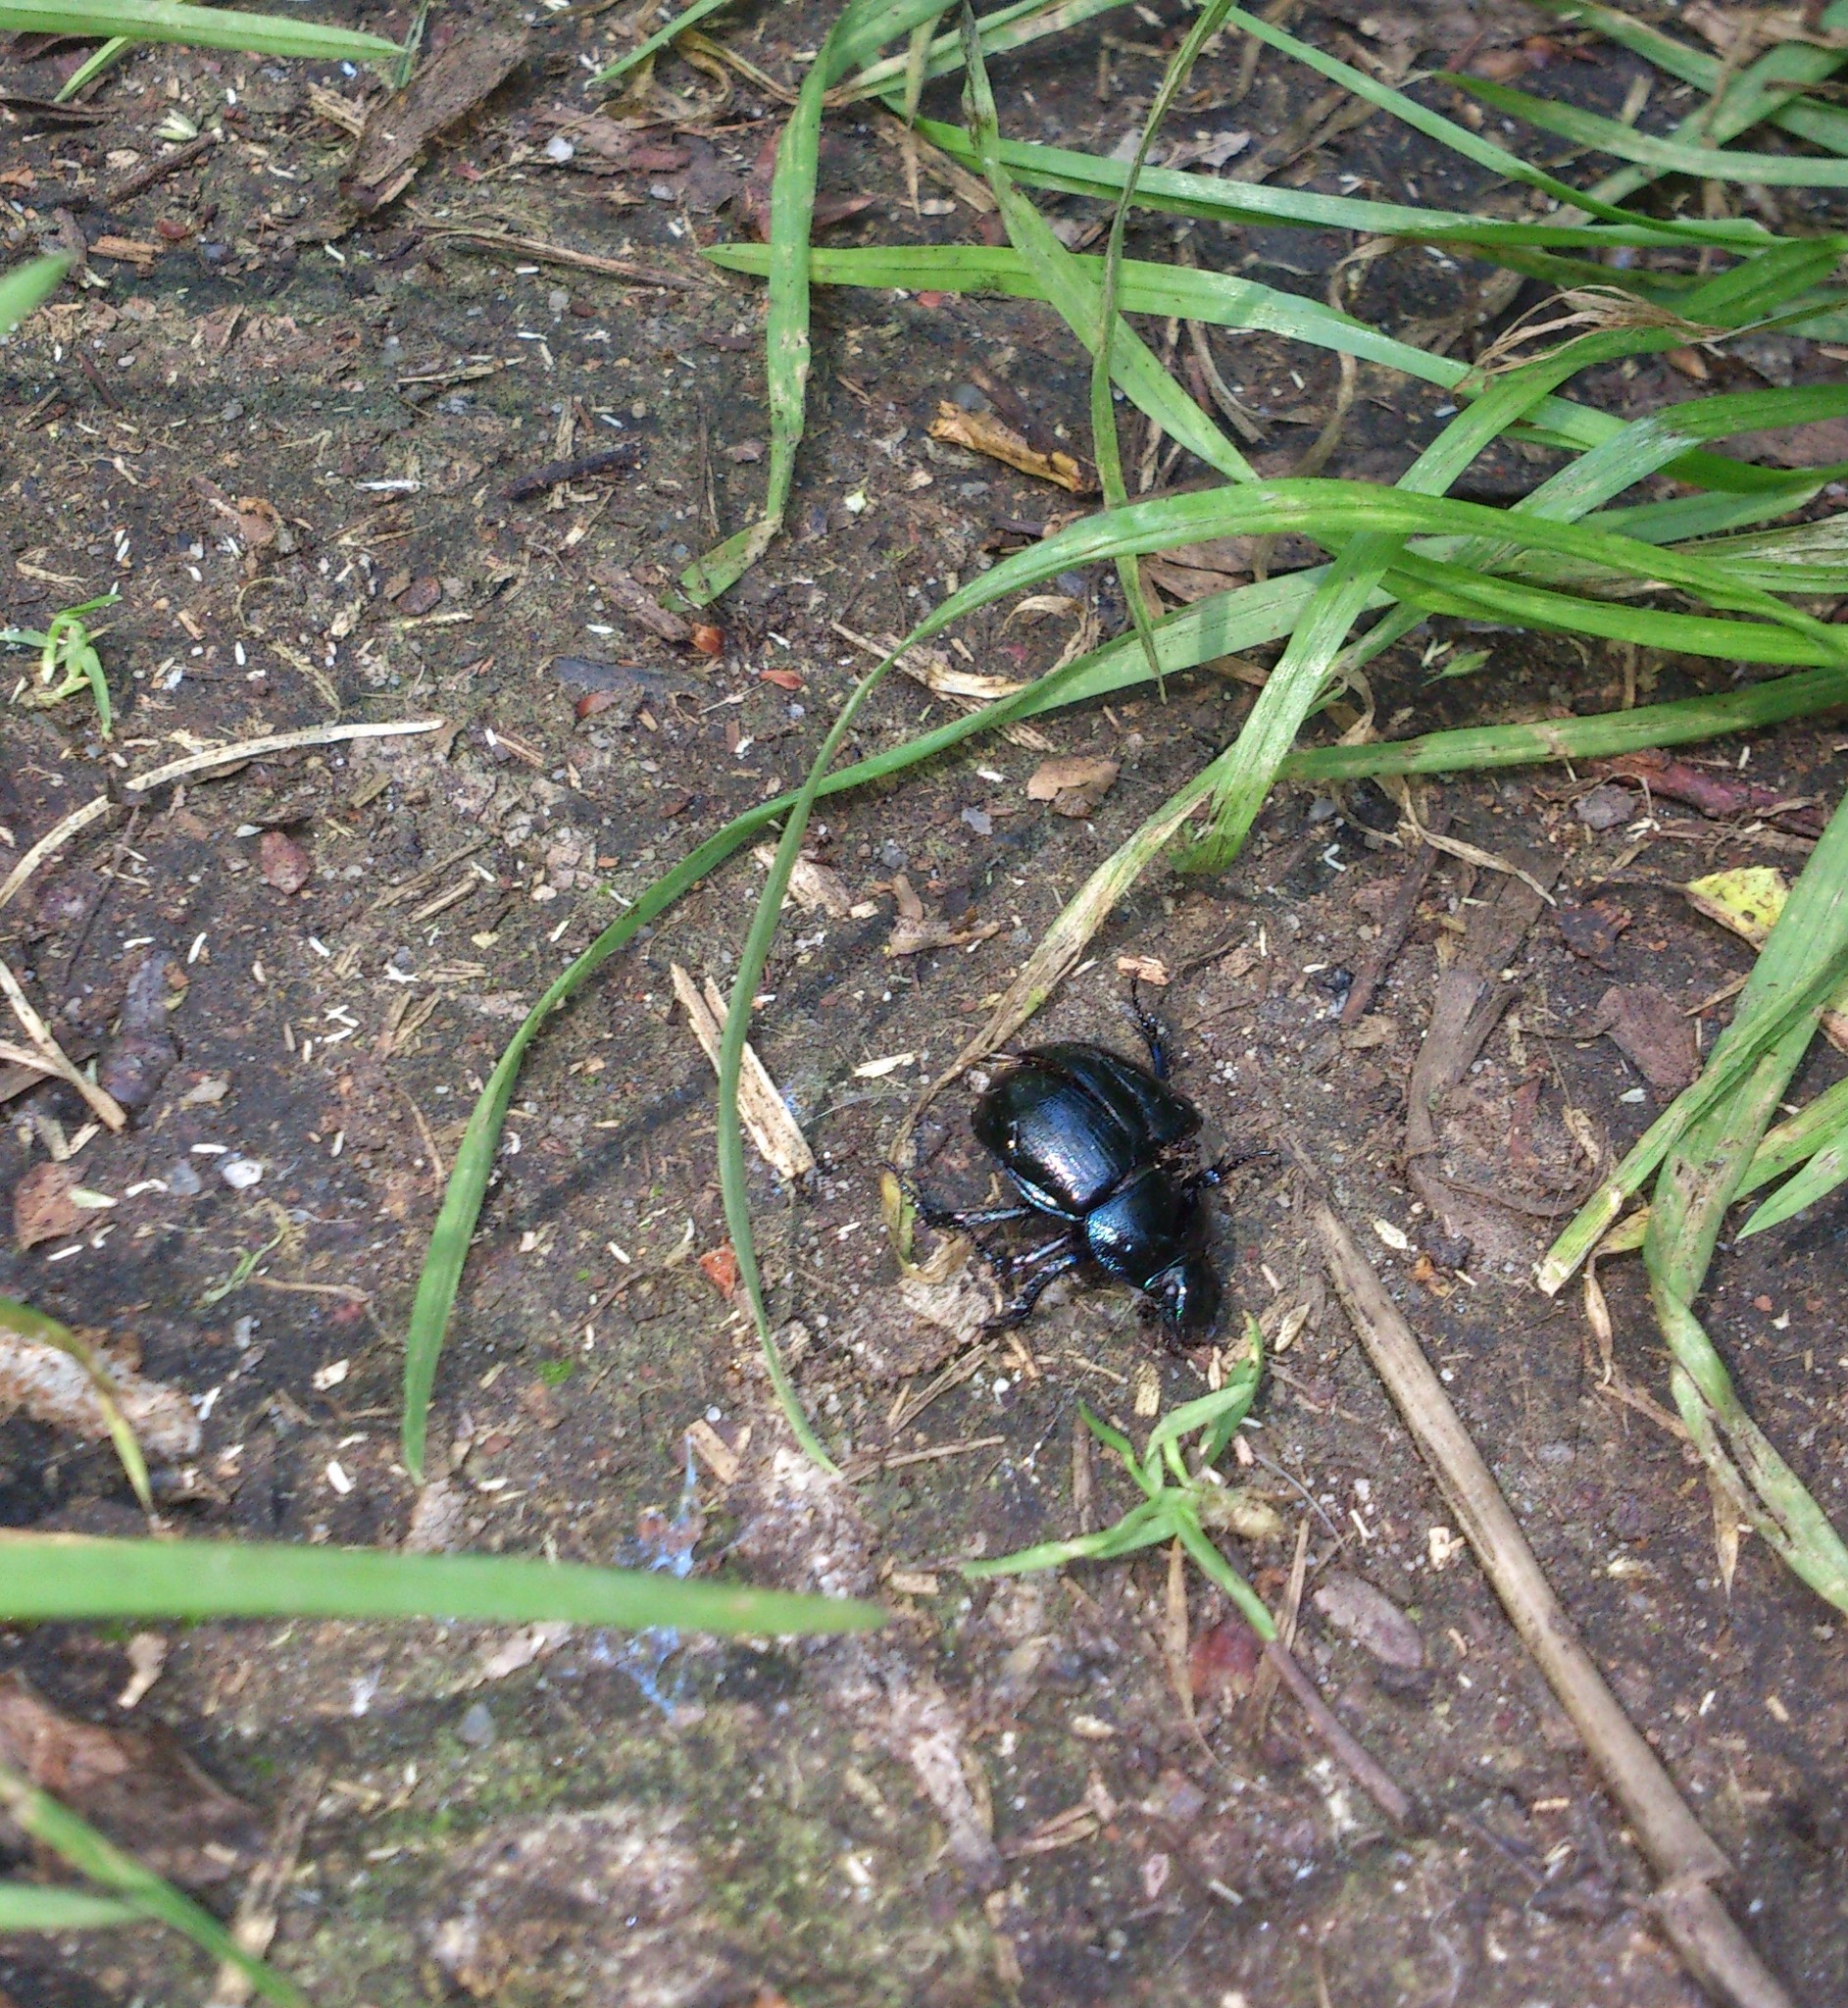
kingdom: Animalia
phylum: Arthropoda
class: Insecta
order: Coleoptera
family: Geotrupidae
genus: Anoplotrupes
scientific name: Anoplotrupes stercorosus
